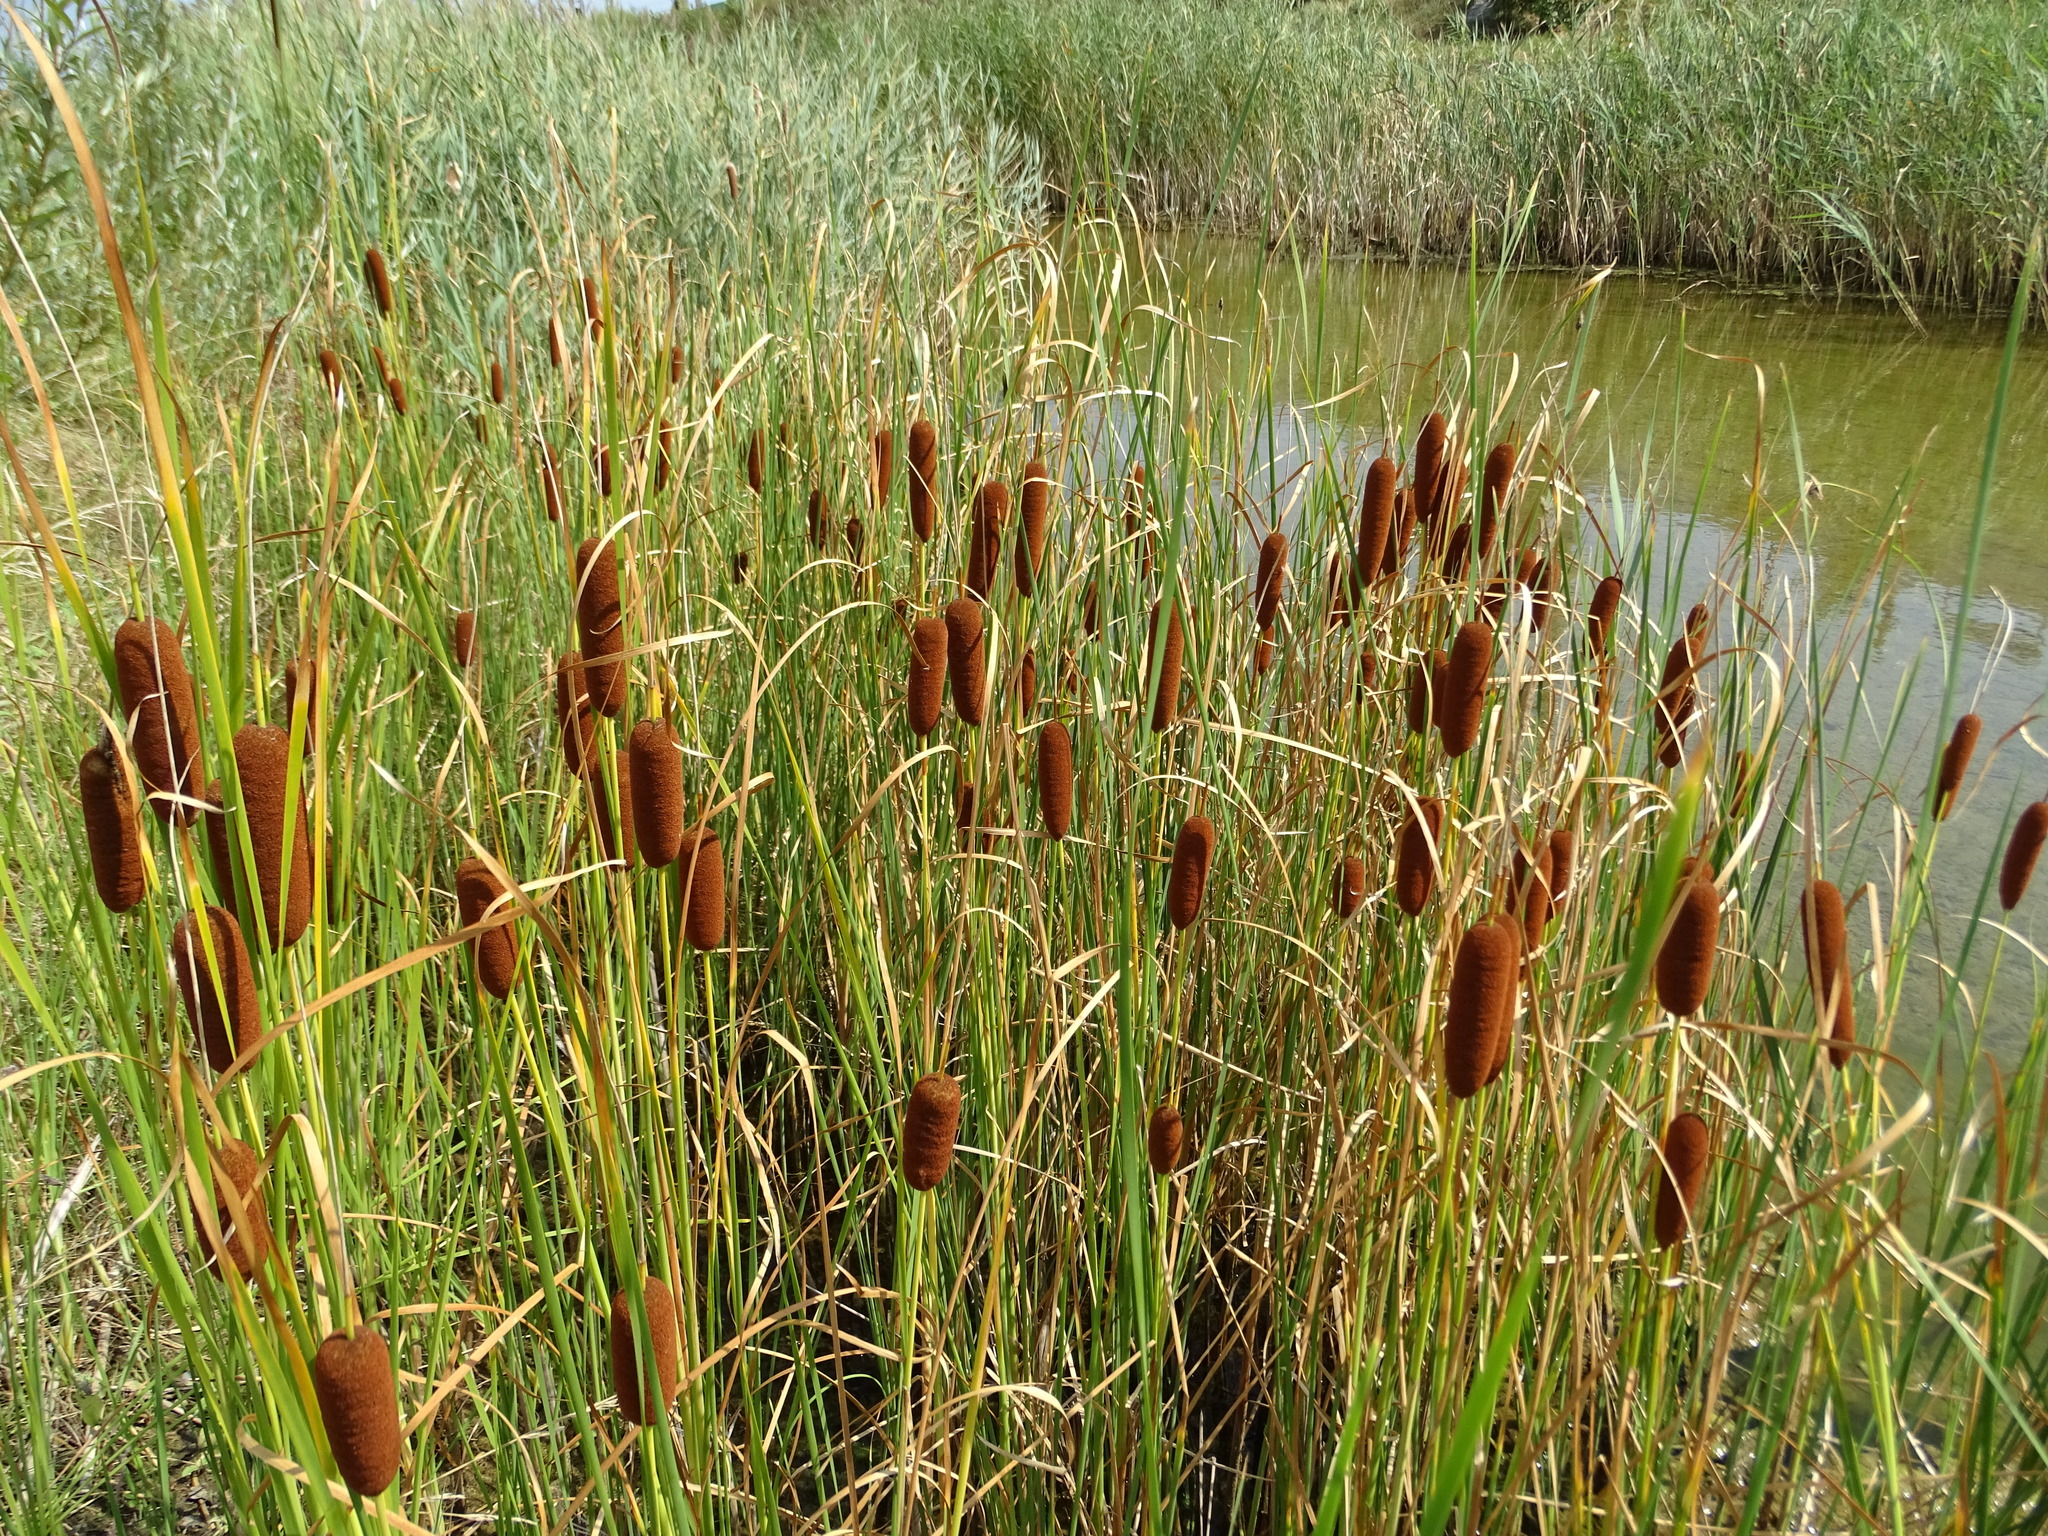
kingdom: Plantae
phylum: Tracheophyta
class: Liliopsida
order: Poales
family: Typhaceae
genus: Typha
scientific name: Typha laxmannii
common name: Laxman’s bulrush
